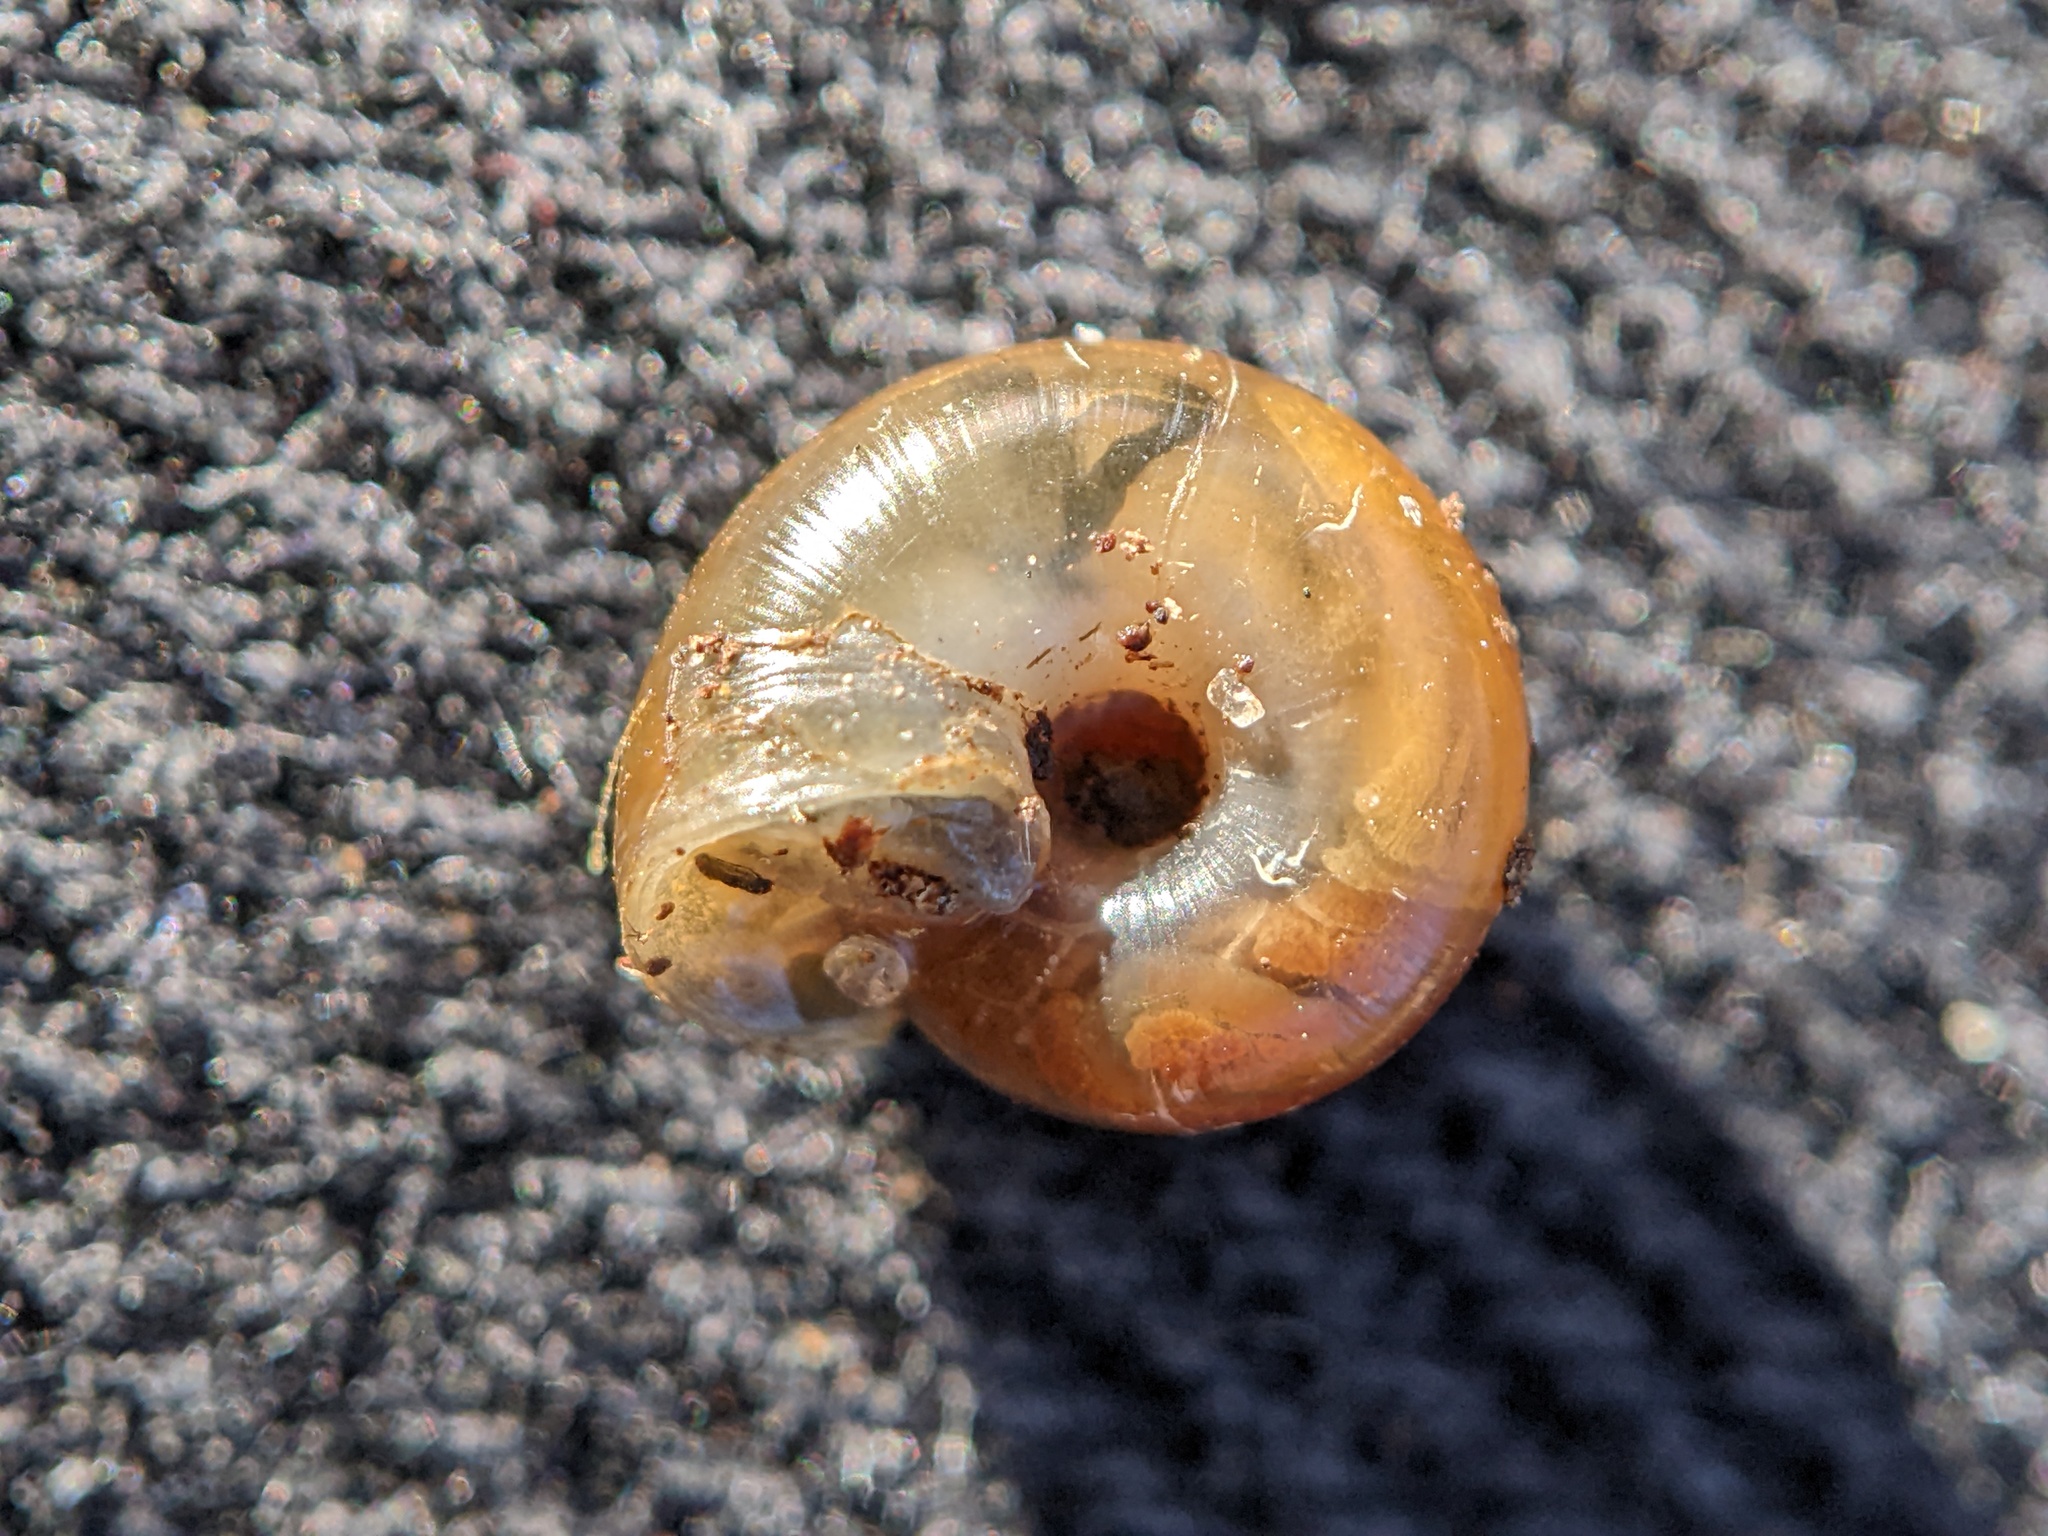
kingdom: Animalia
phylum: Mollusca
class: Gastropoda
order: Stylommatophora
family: Gastrodontidae
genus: Aegopinella
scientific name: Aegopinella nitidula
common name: Smooth glass snail
